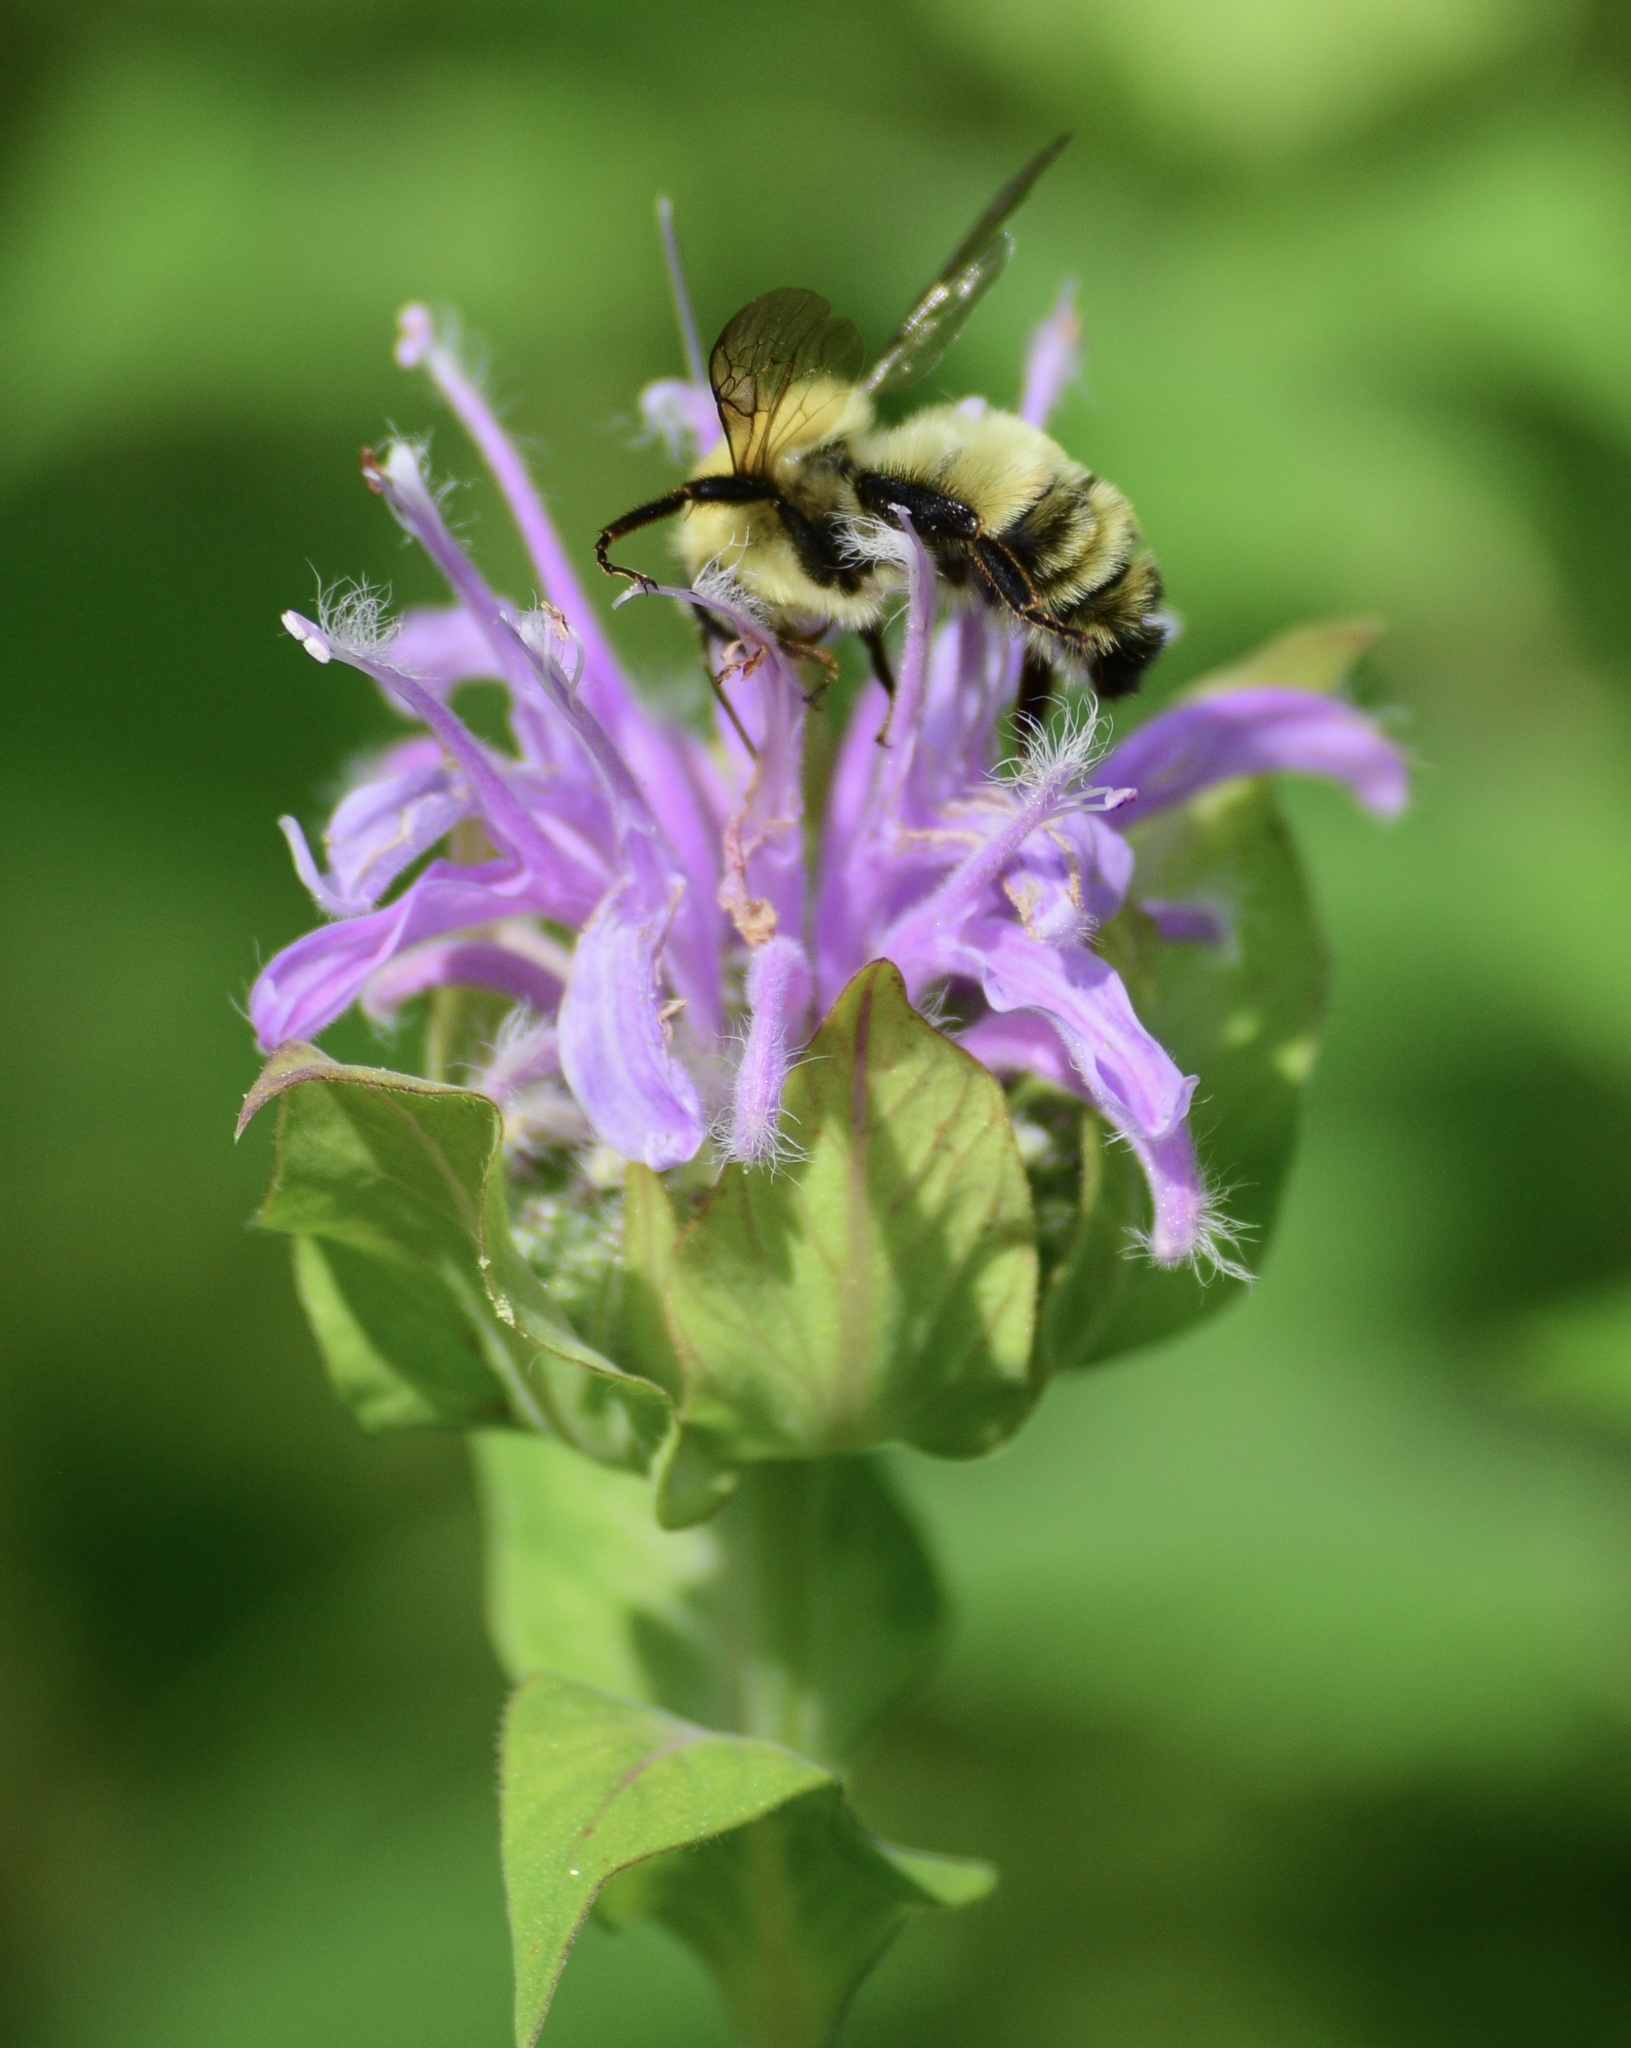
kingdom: Animalia
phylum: Arthropoda
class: Insecta
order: Hymenoptera
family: Apidae
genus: Bombus
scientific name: Bombus bimaculatus
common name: Two-spotted bumble bee
